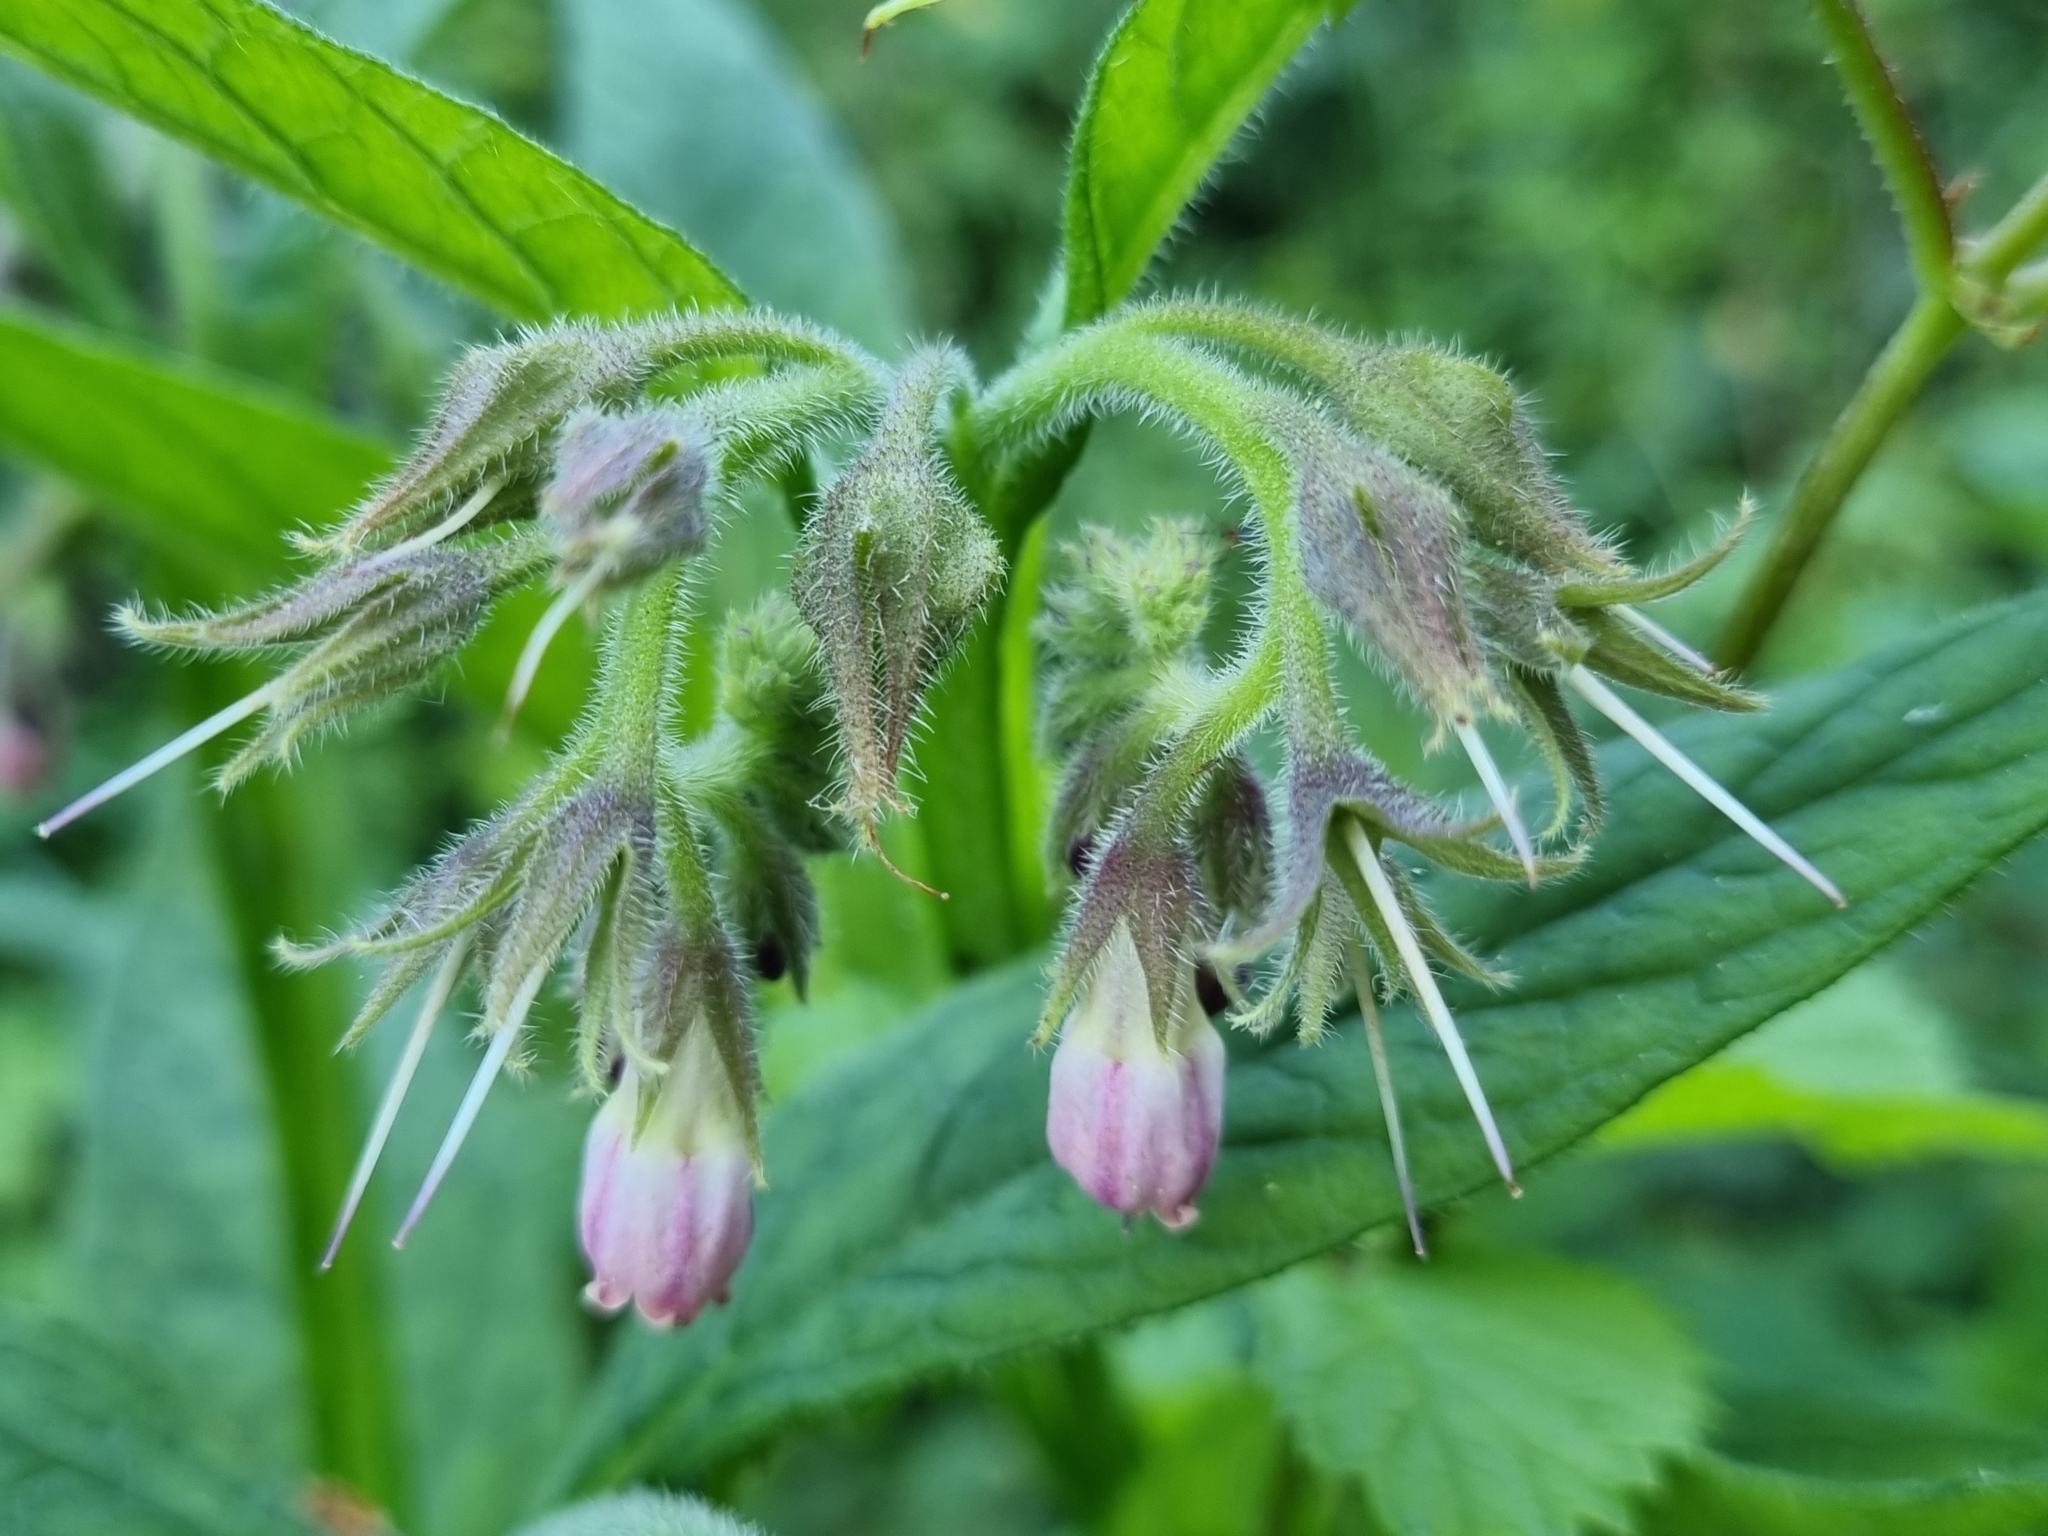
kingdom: Plantae
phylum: Tracheophyta
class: Magnoliopsida
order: Boraginales
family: Boraginaceae
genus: Symphytum
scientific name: Symphytum officinale
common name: Common comfrey
